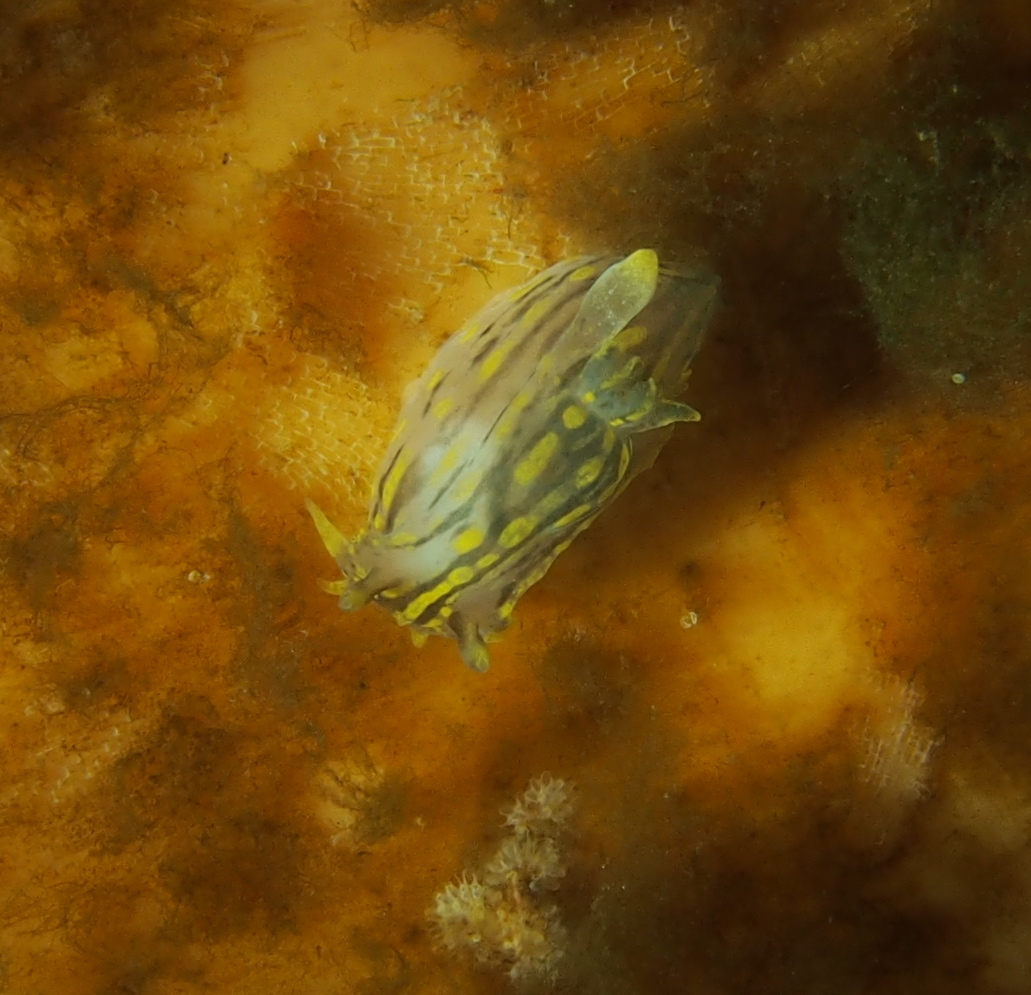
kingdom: Animalia
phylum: Mollusca
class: Gastropoda
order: Nudibranchia
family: Polyceridae
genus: Polycera
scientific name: Polycera quadrilineata
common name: Four-striped polycera
